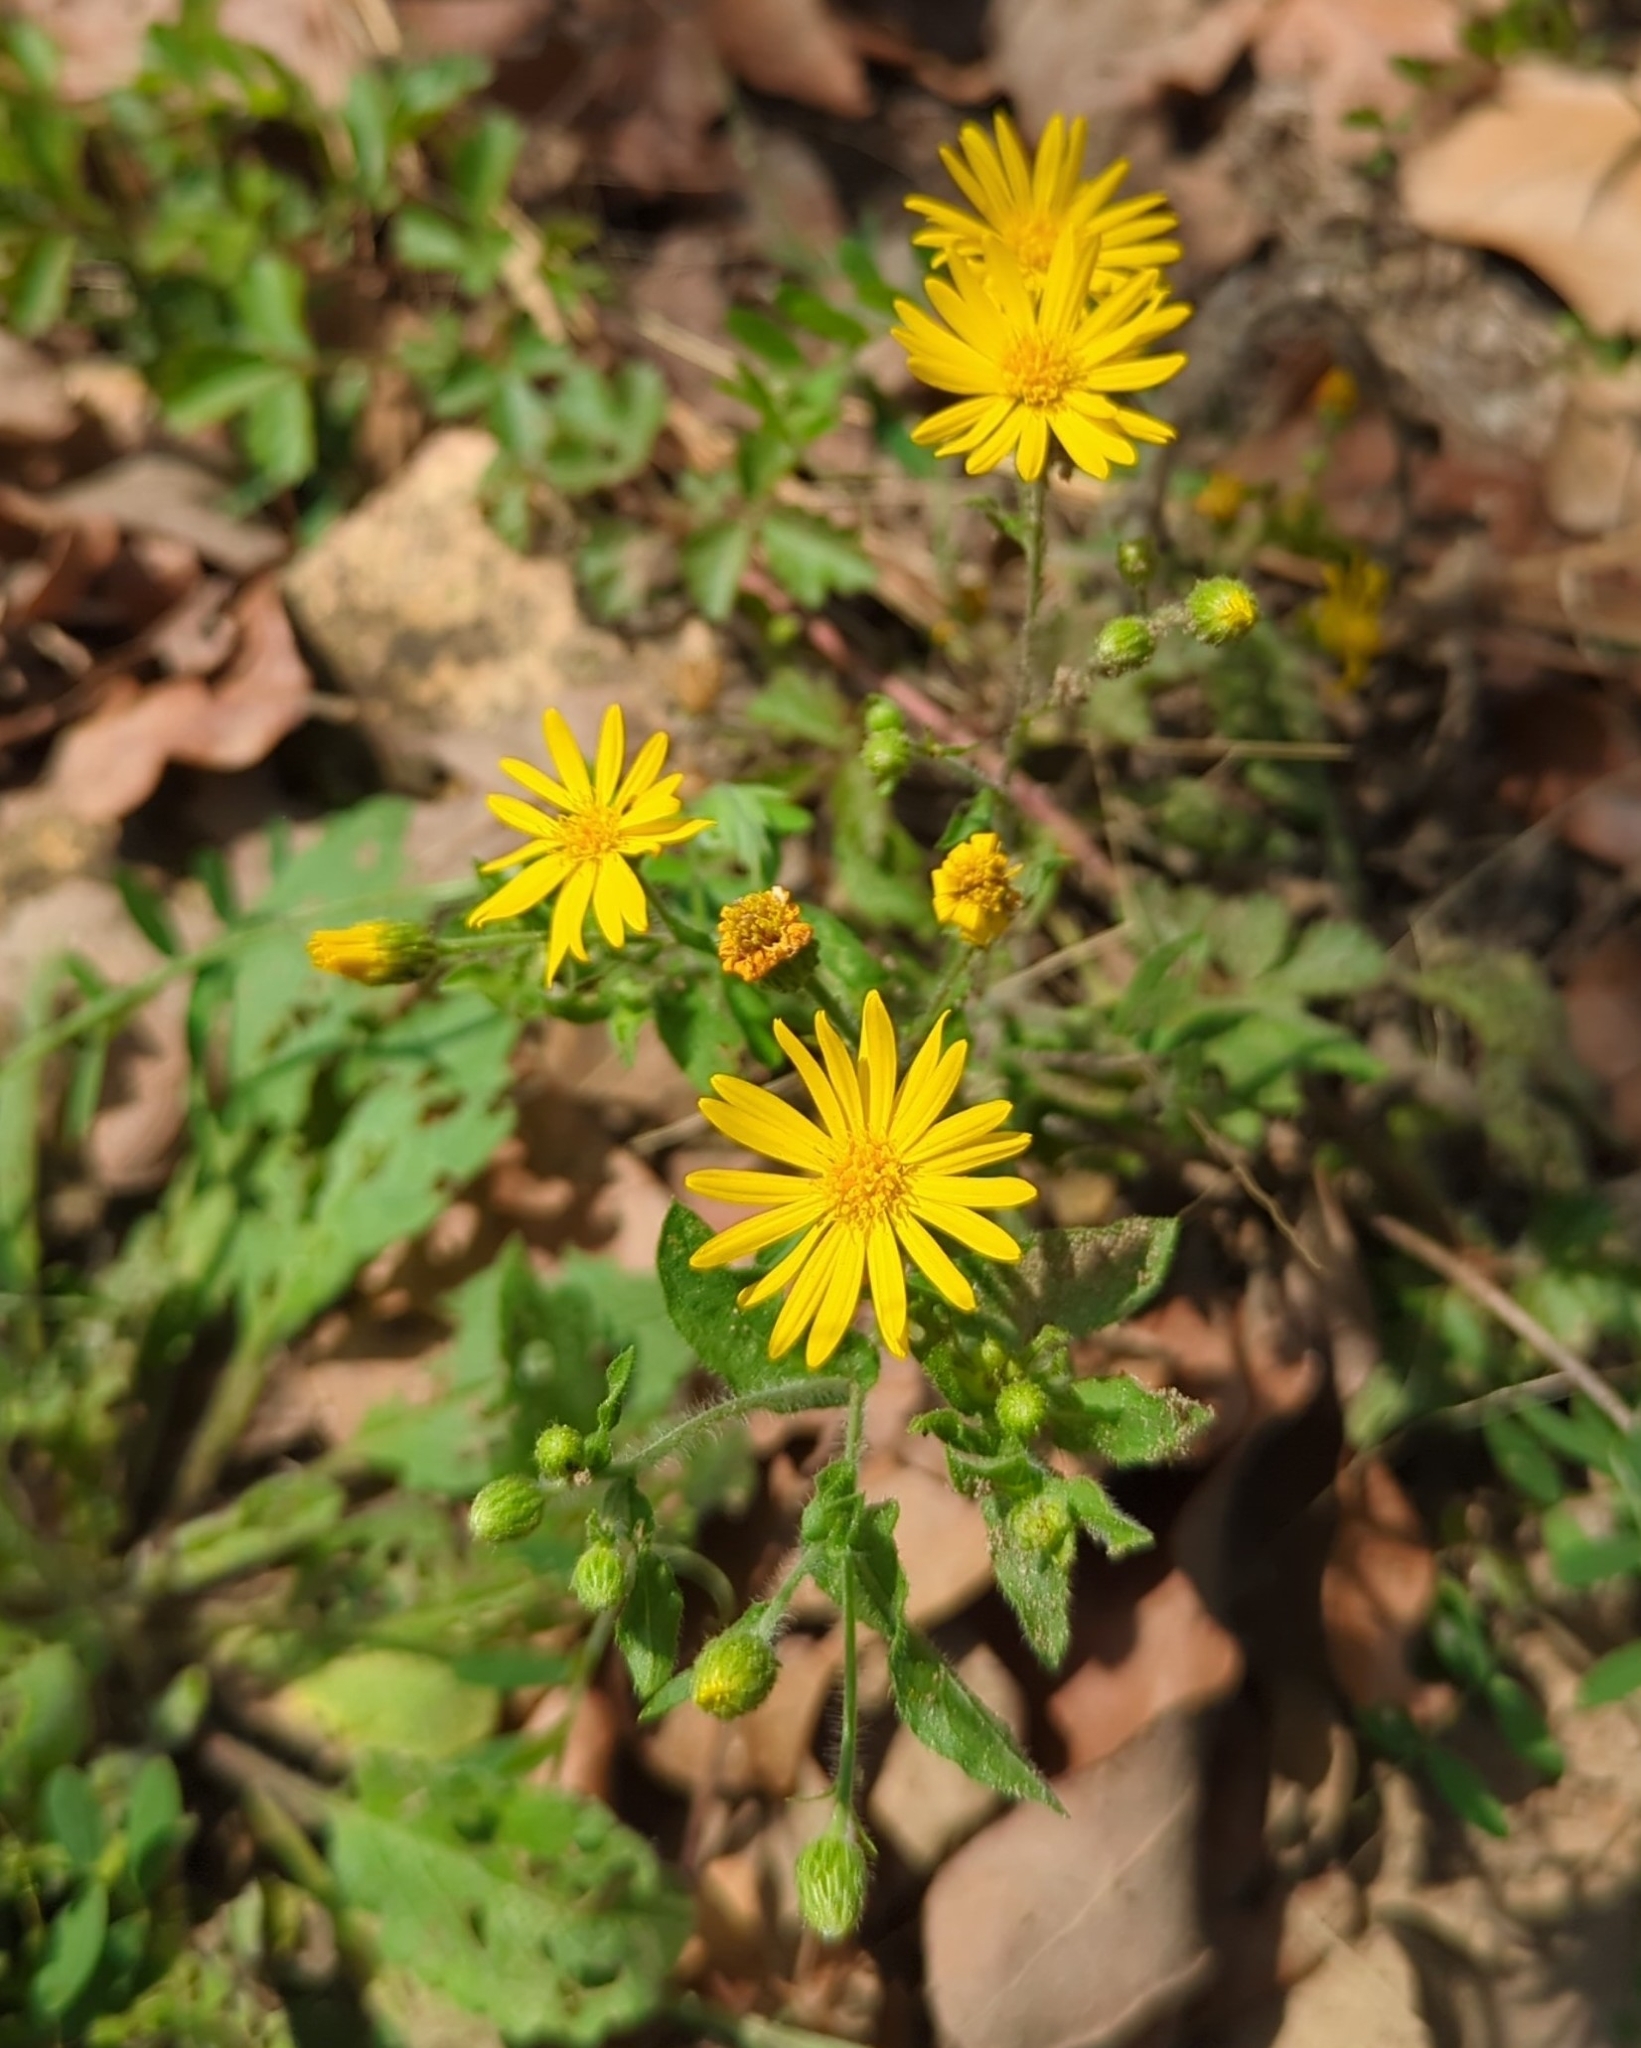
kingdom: Plantae
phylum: Tracheophyta
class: Magnoliopsida
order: Asterales
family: Asteraceae
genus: Heterotheca
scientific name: Heterotheca subaxillaris
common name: Camphorweed
